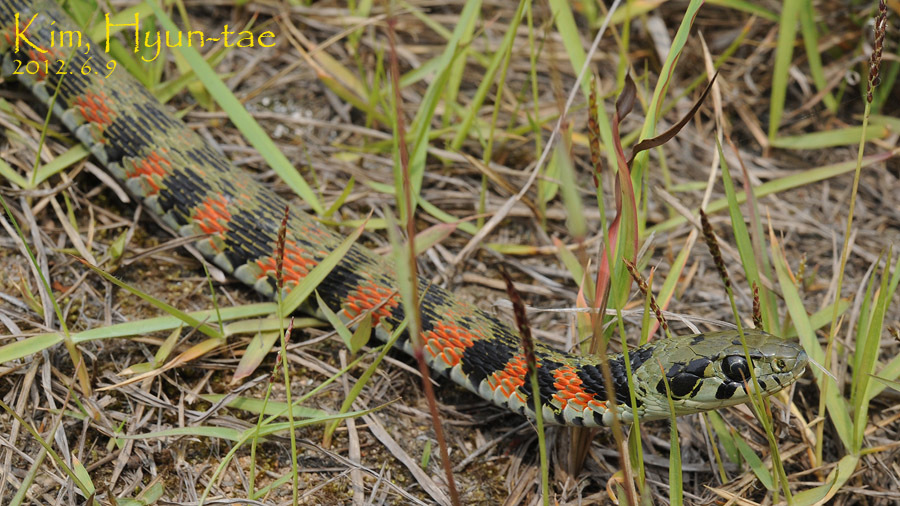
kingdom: Animalia
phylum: Chordata
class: Squamata
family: Colubridae
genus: Rhabdophis
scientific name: Rhabdophis tigrinus
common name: Tiger keelback
